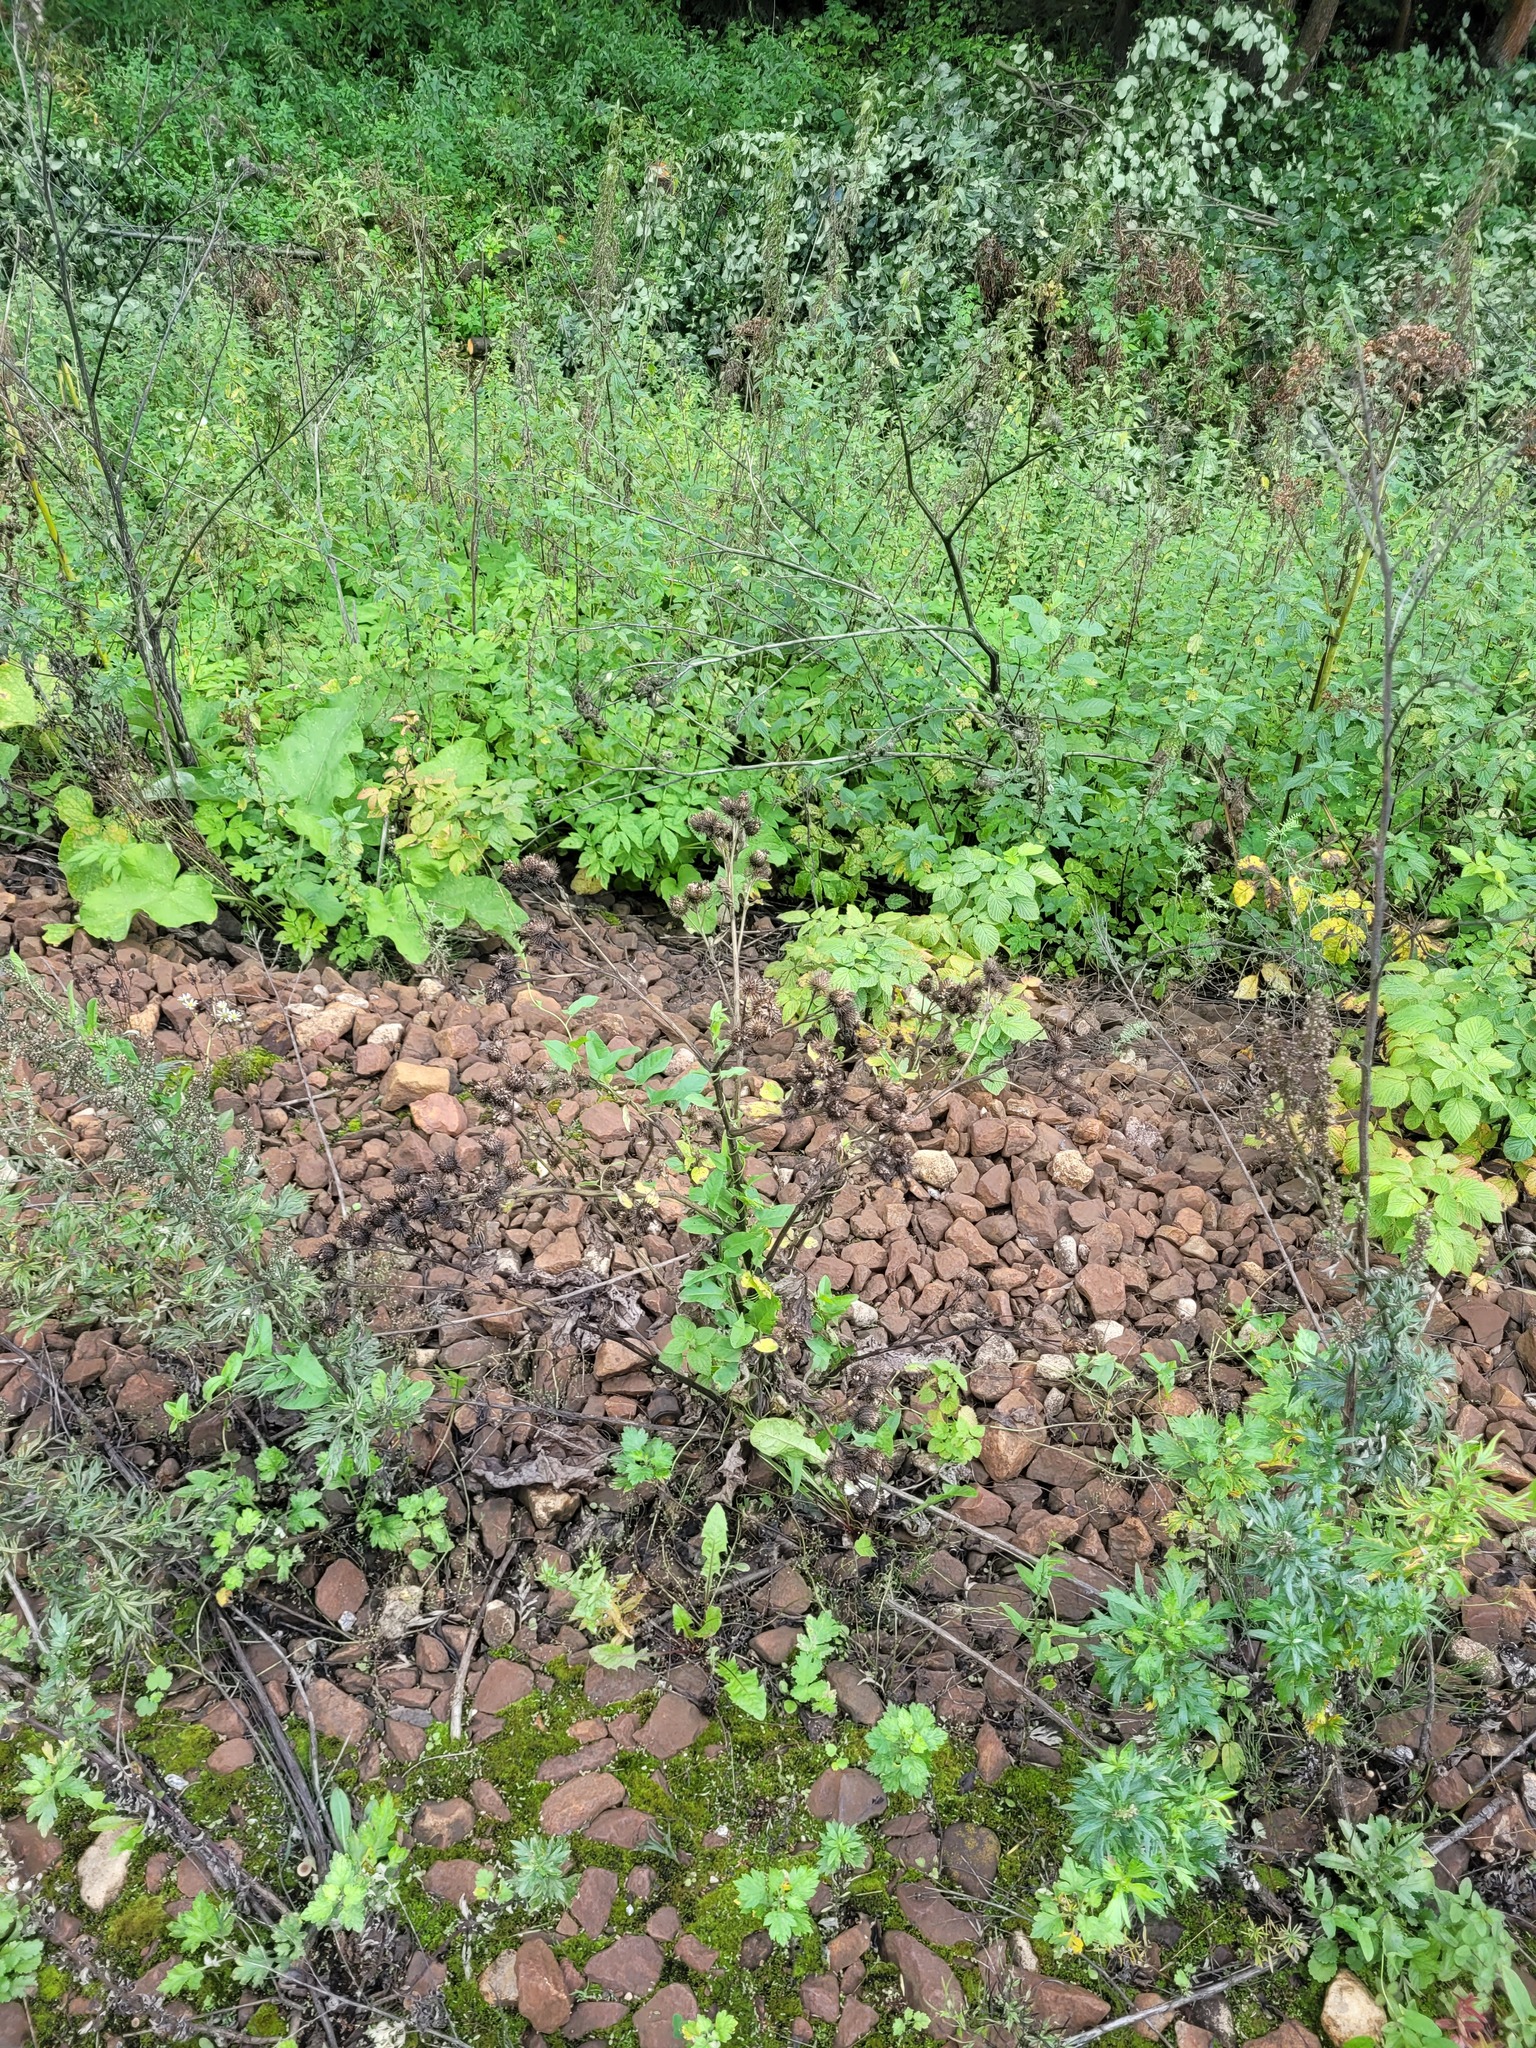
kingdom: Plantae
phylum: Tracheophyta
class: Magnoliopsida
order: Asterales
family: Asteraceae
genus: Arctium
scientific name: Arctium tomentosum
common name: Woolly burdock
